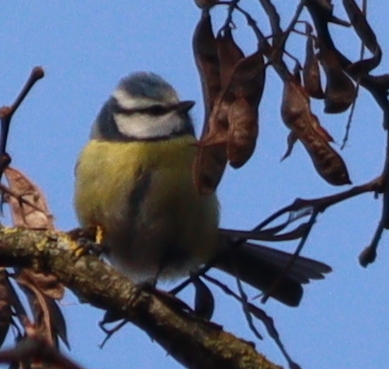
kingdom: Animalia
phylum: Chordata
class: Aves
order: Passeriformes
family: Paridae
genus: Cyanistes
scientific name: Cyanistes caeruleus
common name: Eurasian blue tit
